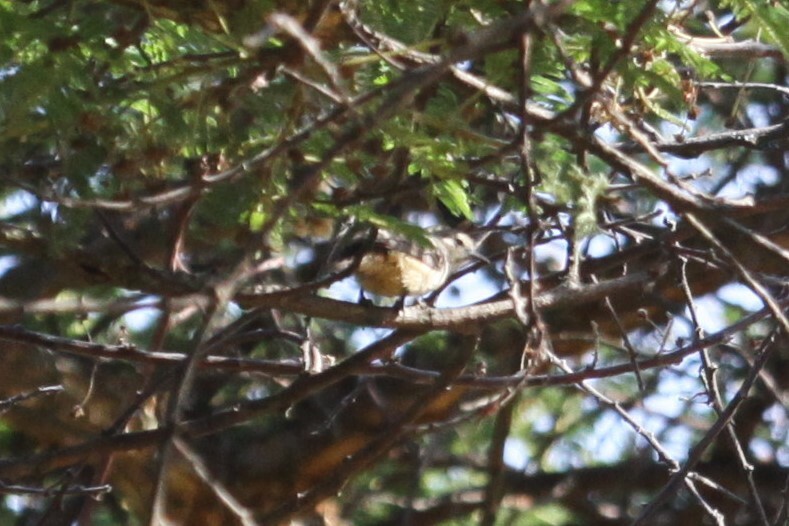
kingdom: Animalia
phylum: Chordata
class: Aves
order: Passeriformes
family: Malaconotidae
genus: Dryoscopus
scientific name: Dryoscopus cubla
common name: Black-backed puffback
